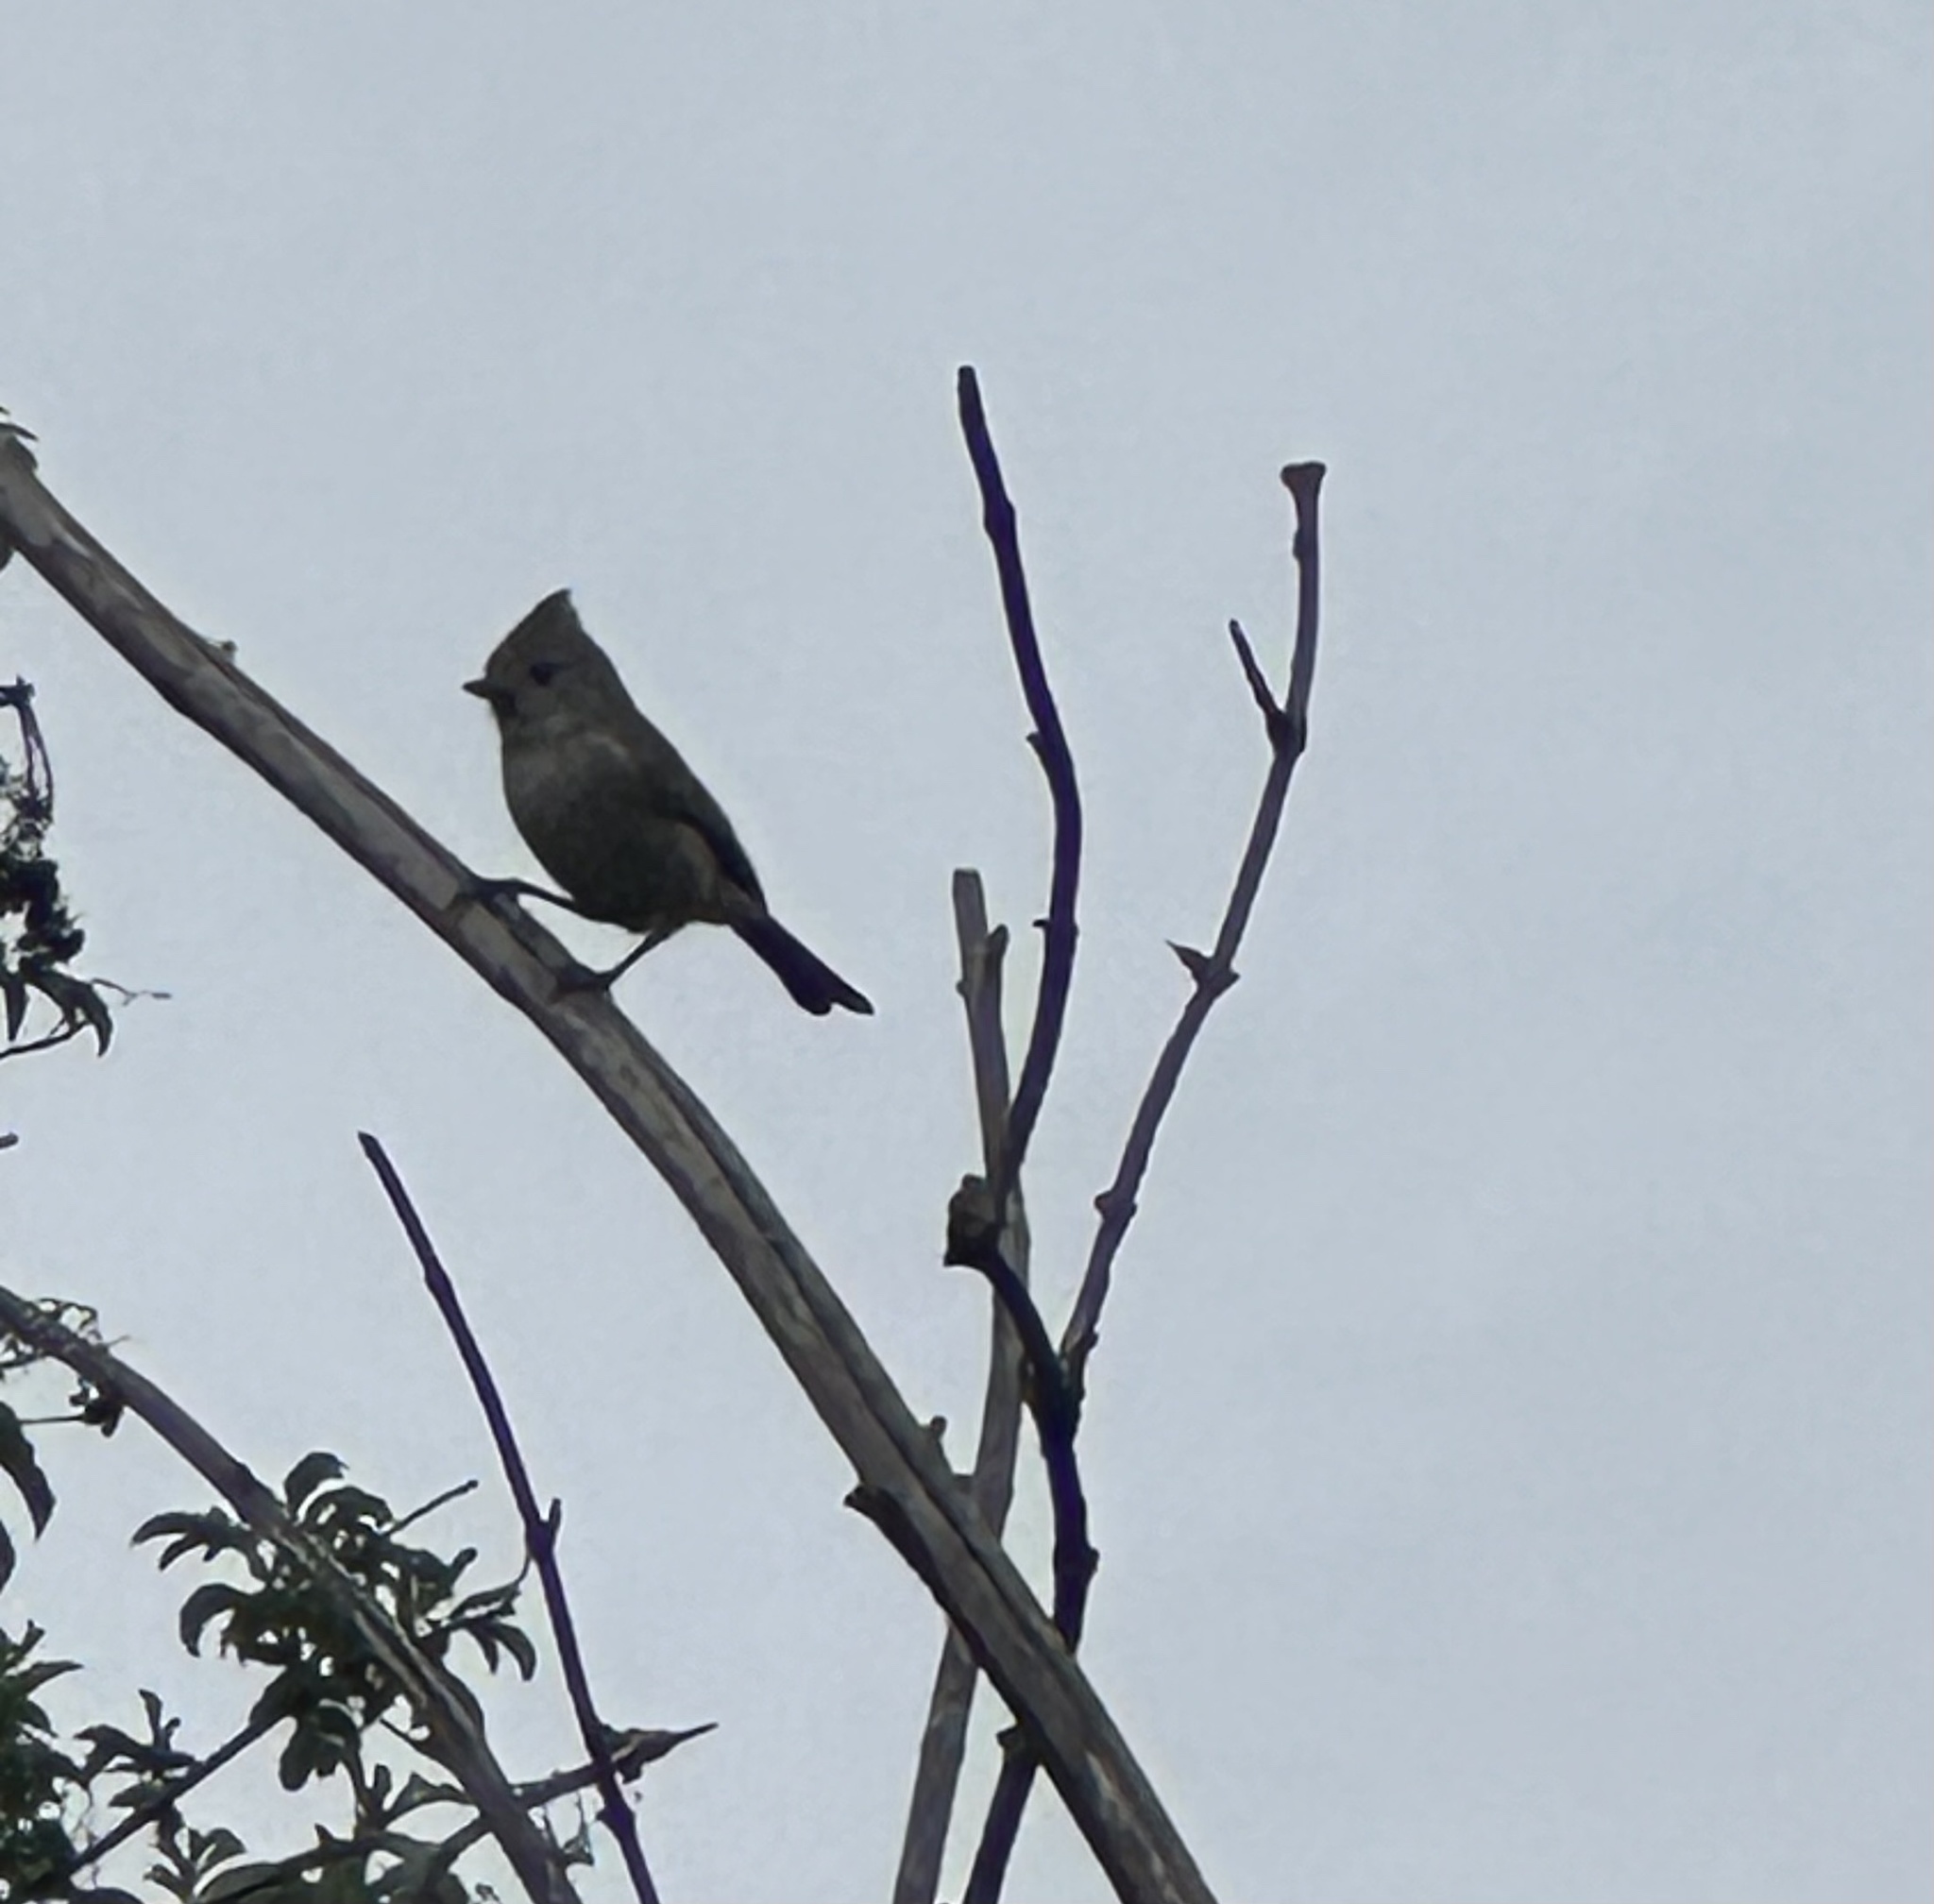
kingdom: Animalia
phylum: Chordata
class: Aves
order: Passeriformes
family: Paridae
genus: Baeolophus
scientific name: Baeolophus inornatus
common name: Oak titmouse
